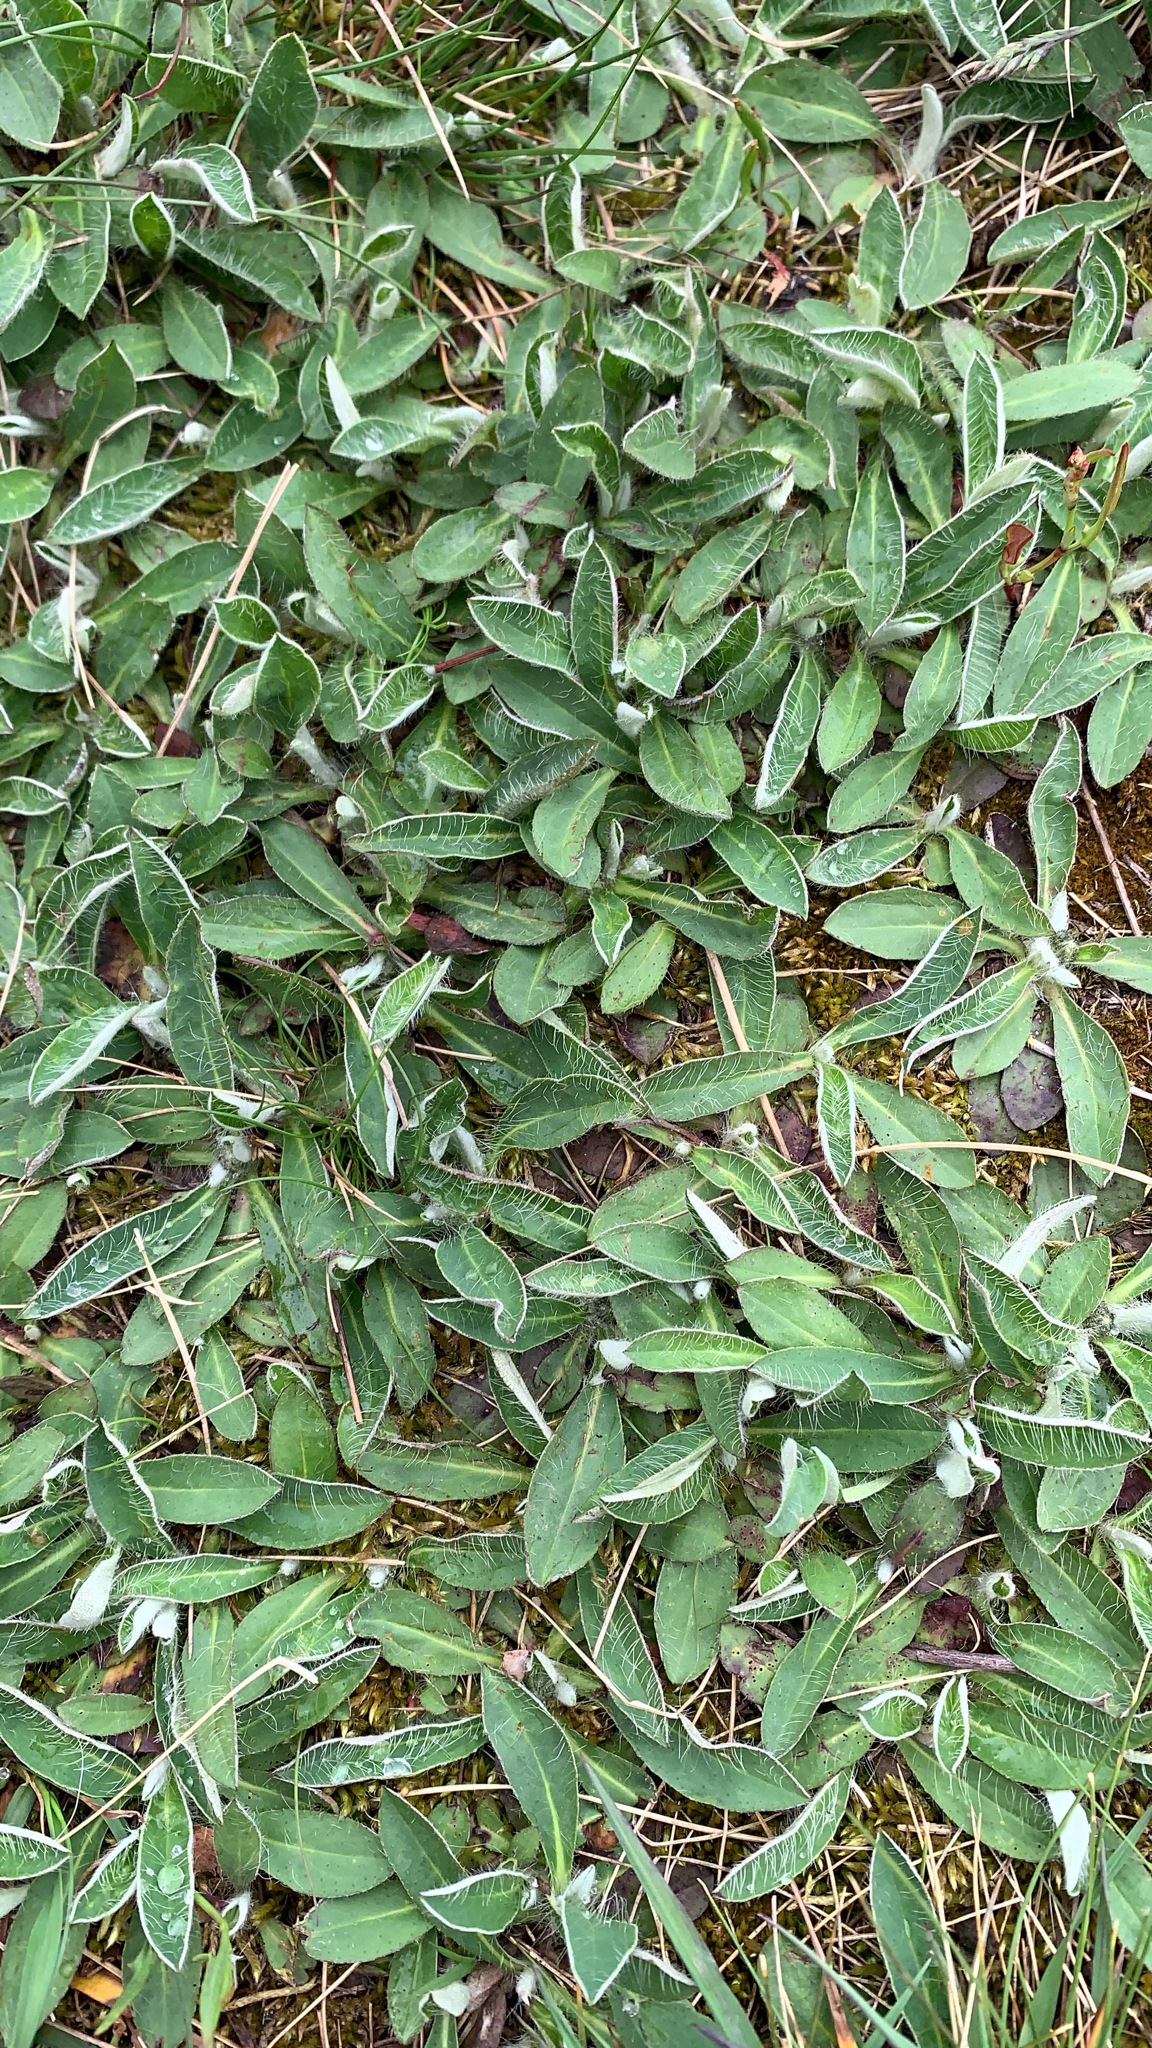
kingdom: Plantae
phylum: Tracheophyta
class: Magnoliopsida
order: Asterales
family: Asteraceae
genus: Pilosella
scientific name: Pilosella officinarum
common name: Mouse-ear hawkweed
